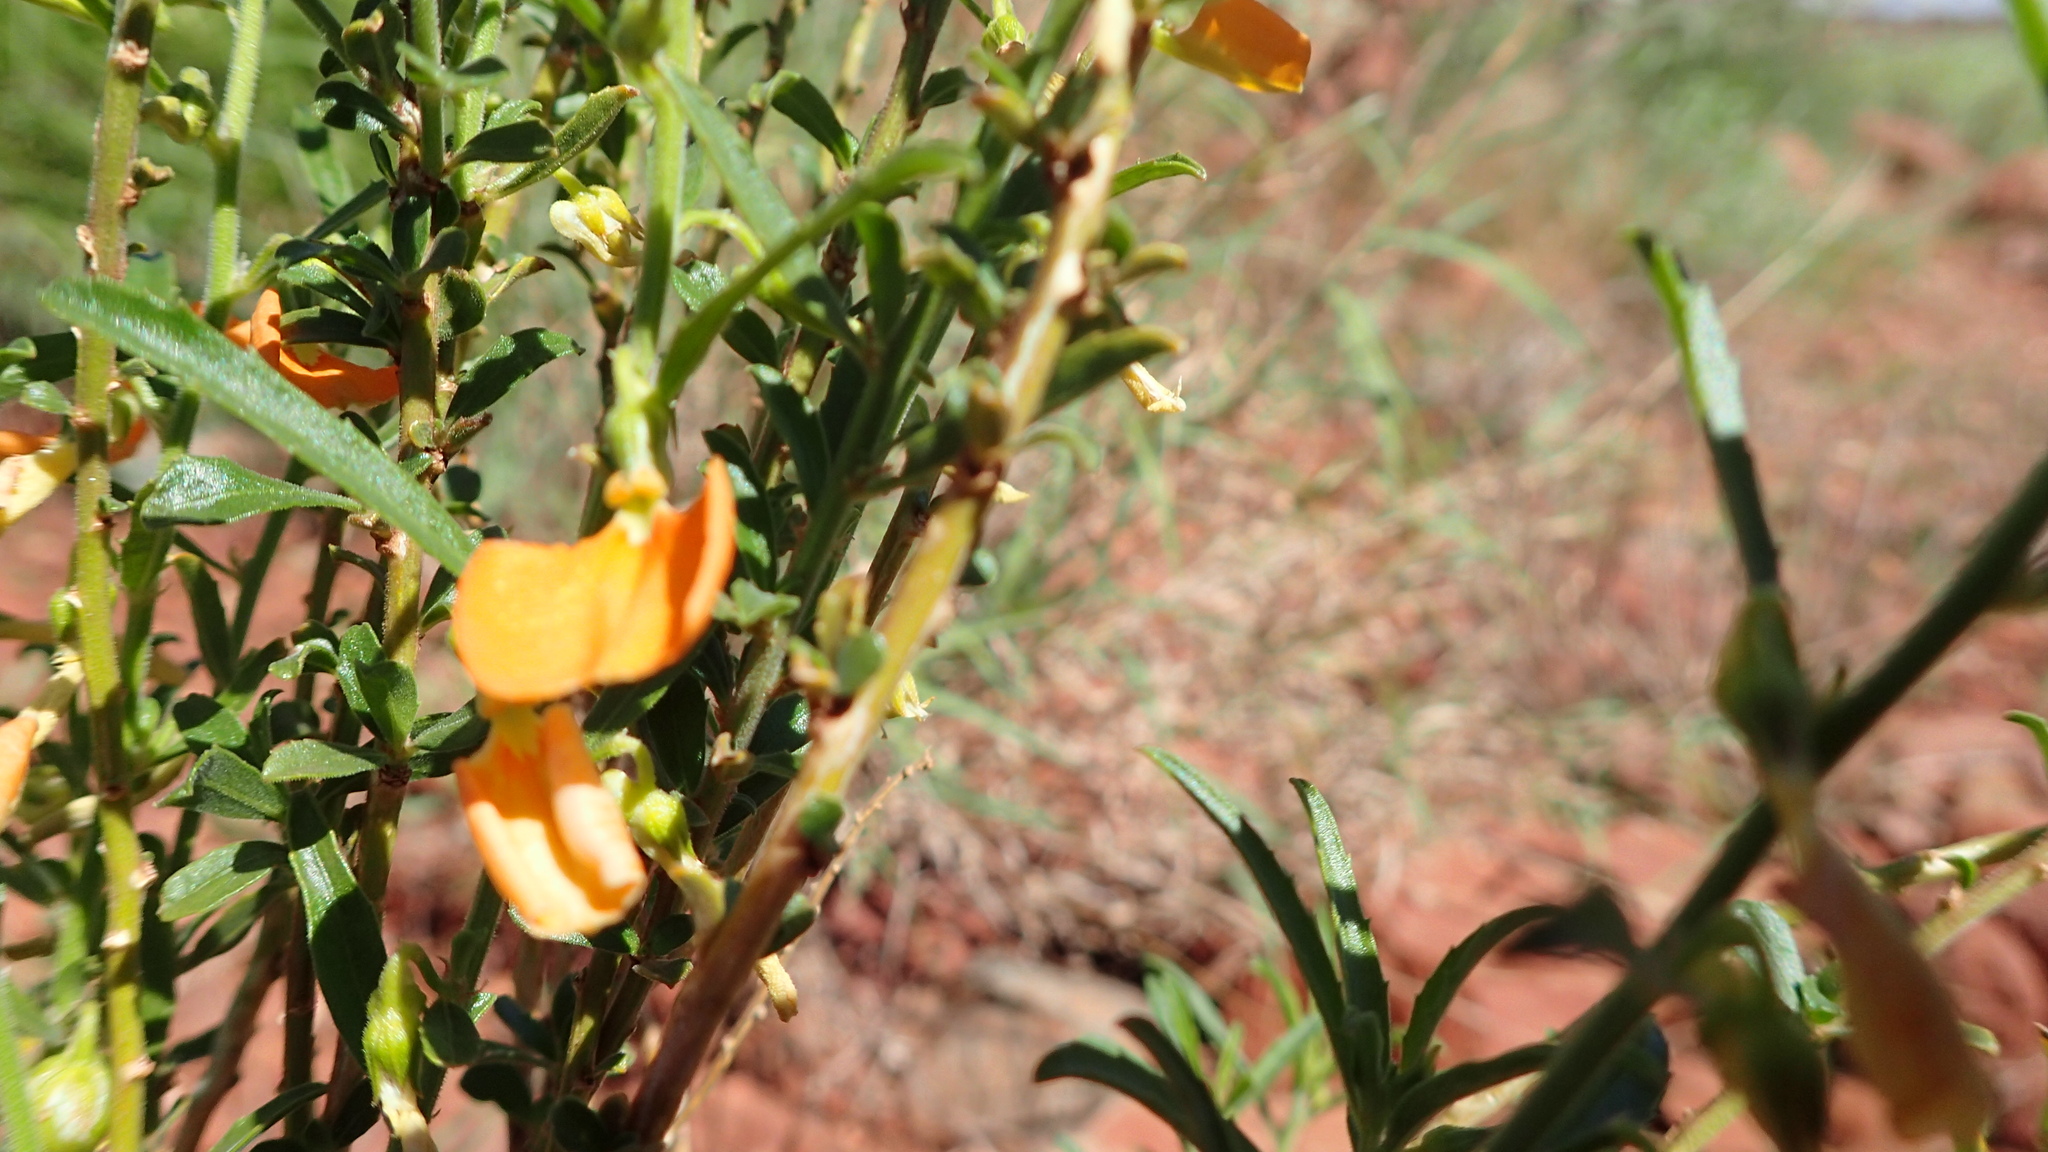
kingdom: Plantae
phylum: Tracheophyta
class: Magnoliopsida
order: Malpighiales
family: Violaceae
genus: Pigea
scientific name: Pigea aurantiaca
